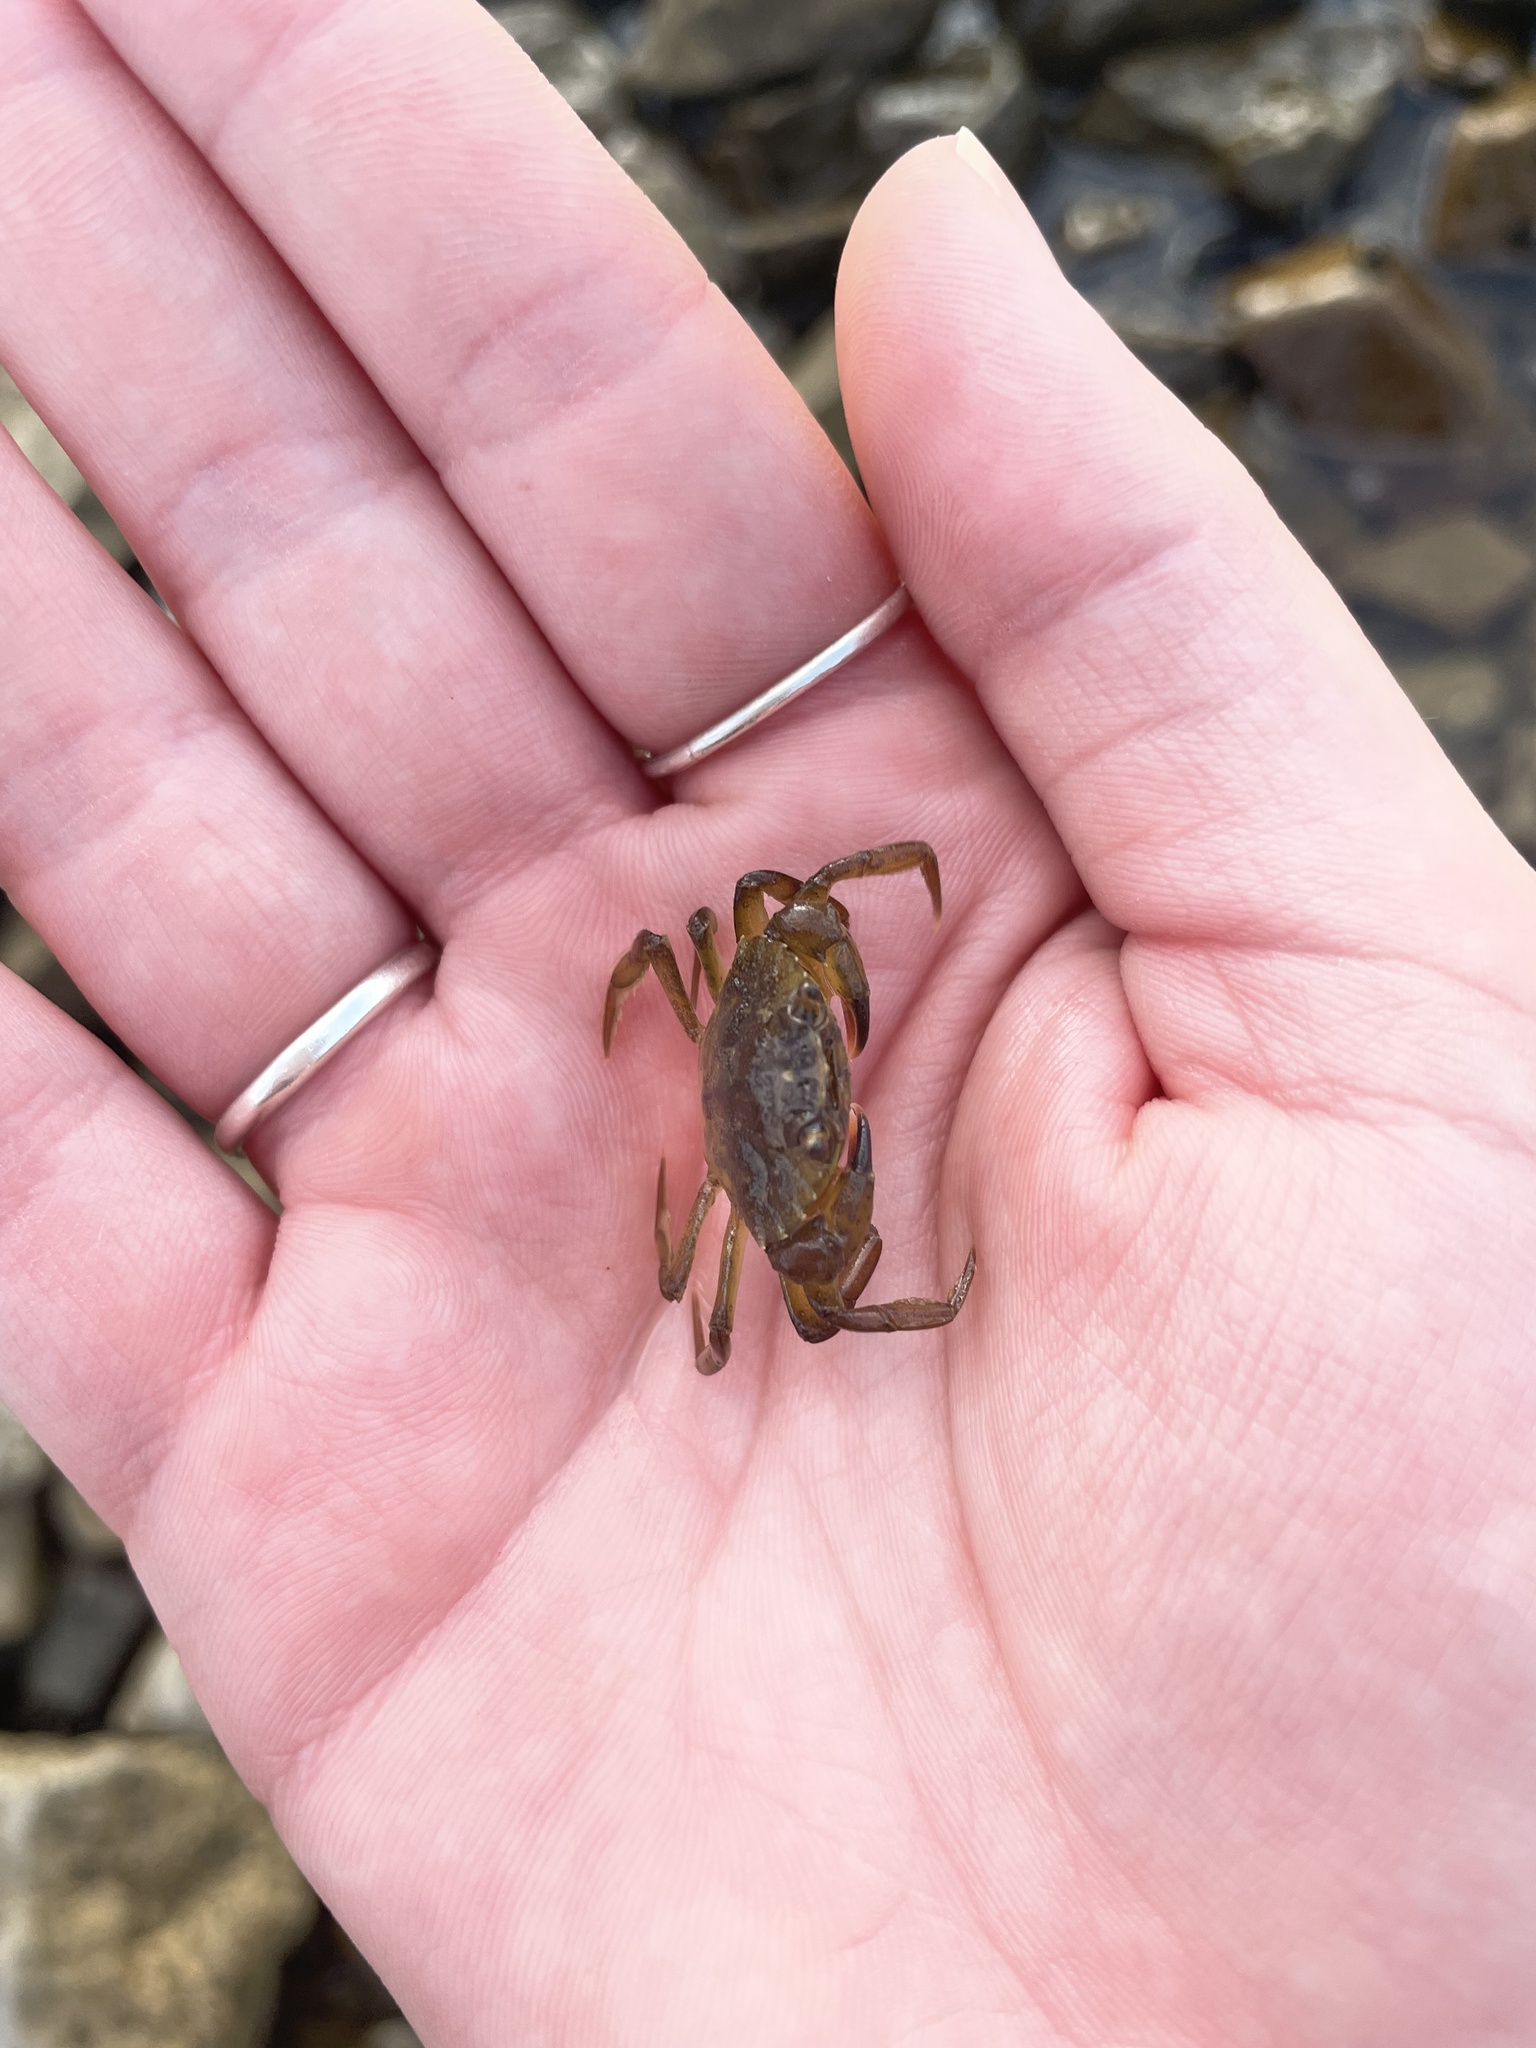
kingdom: Animalia
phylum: Arthropoda
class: Malacostraca
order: Decapoda
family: Carcinidae
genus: Carcinus
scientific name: Carcinus maenas
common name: European green crab
